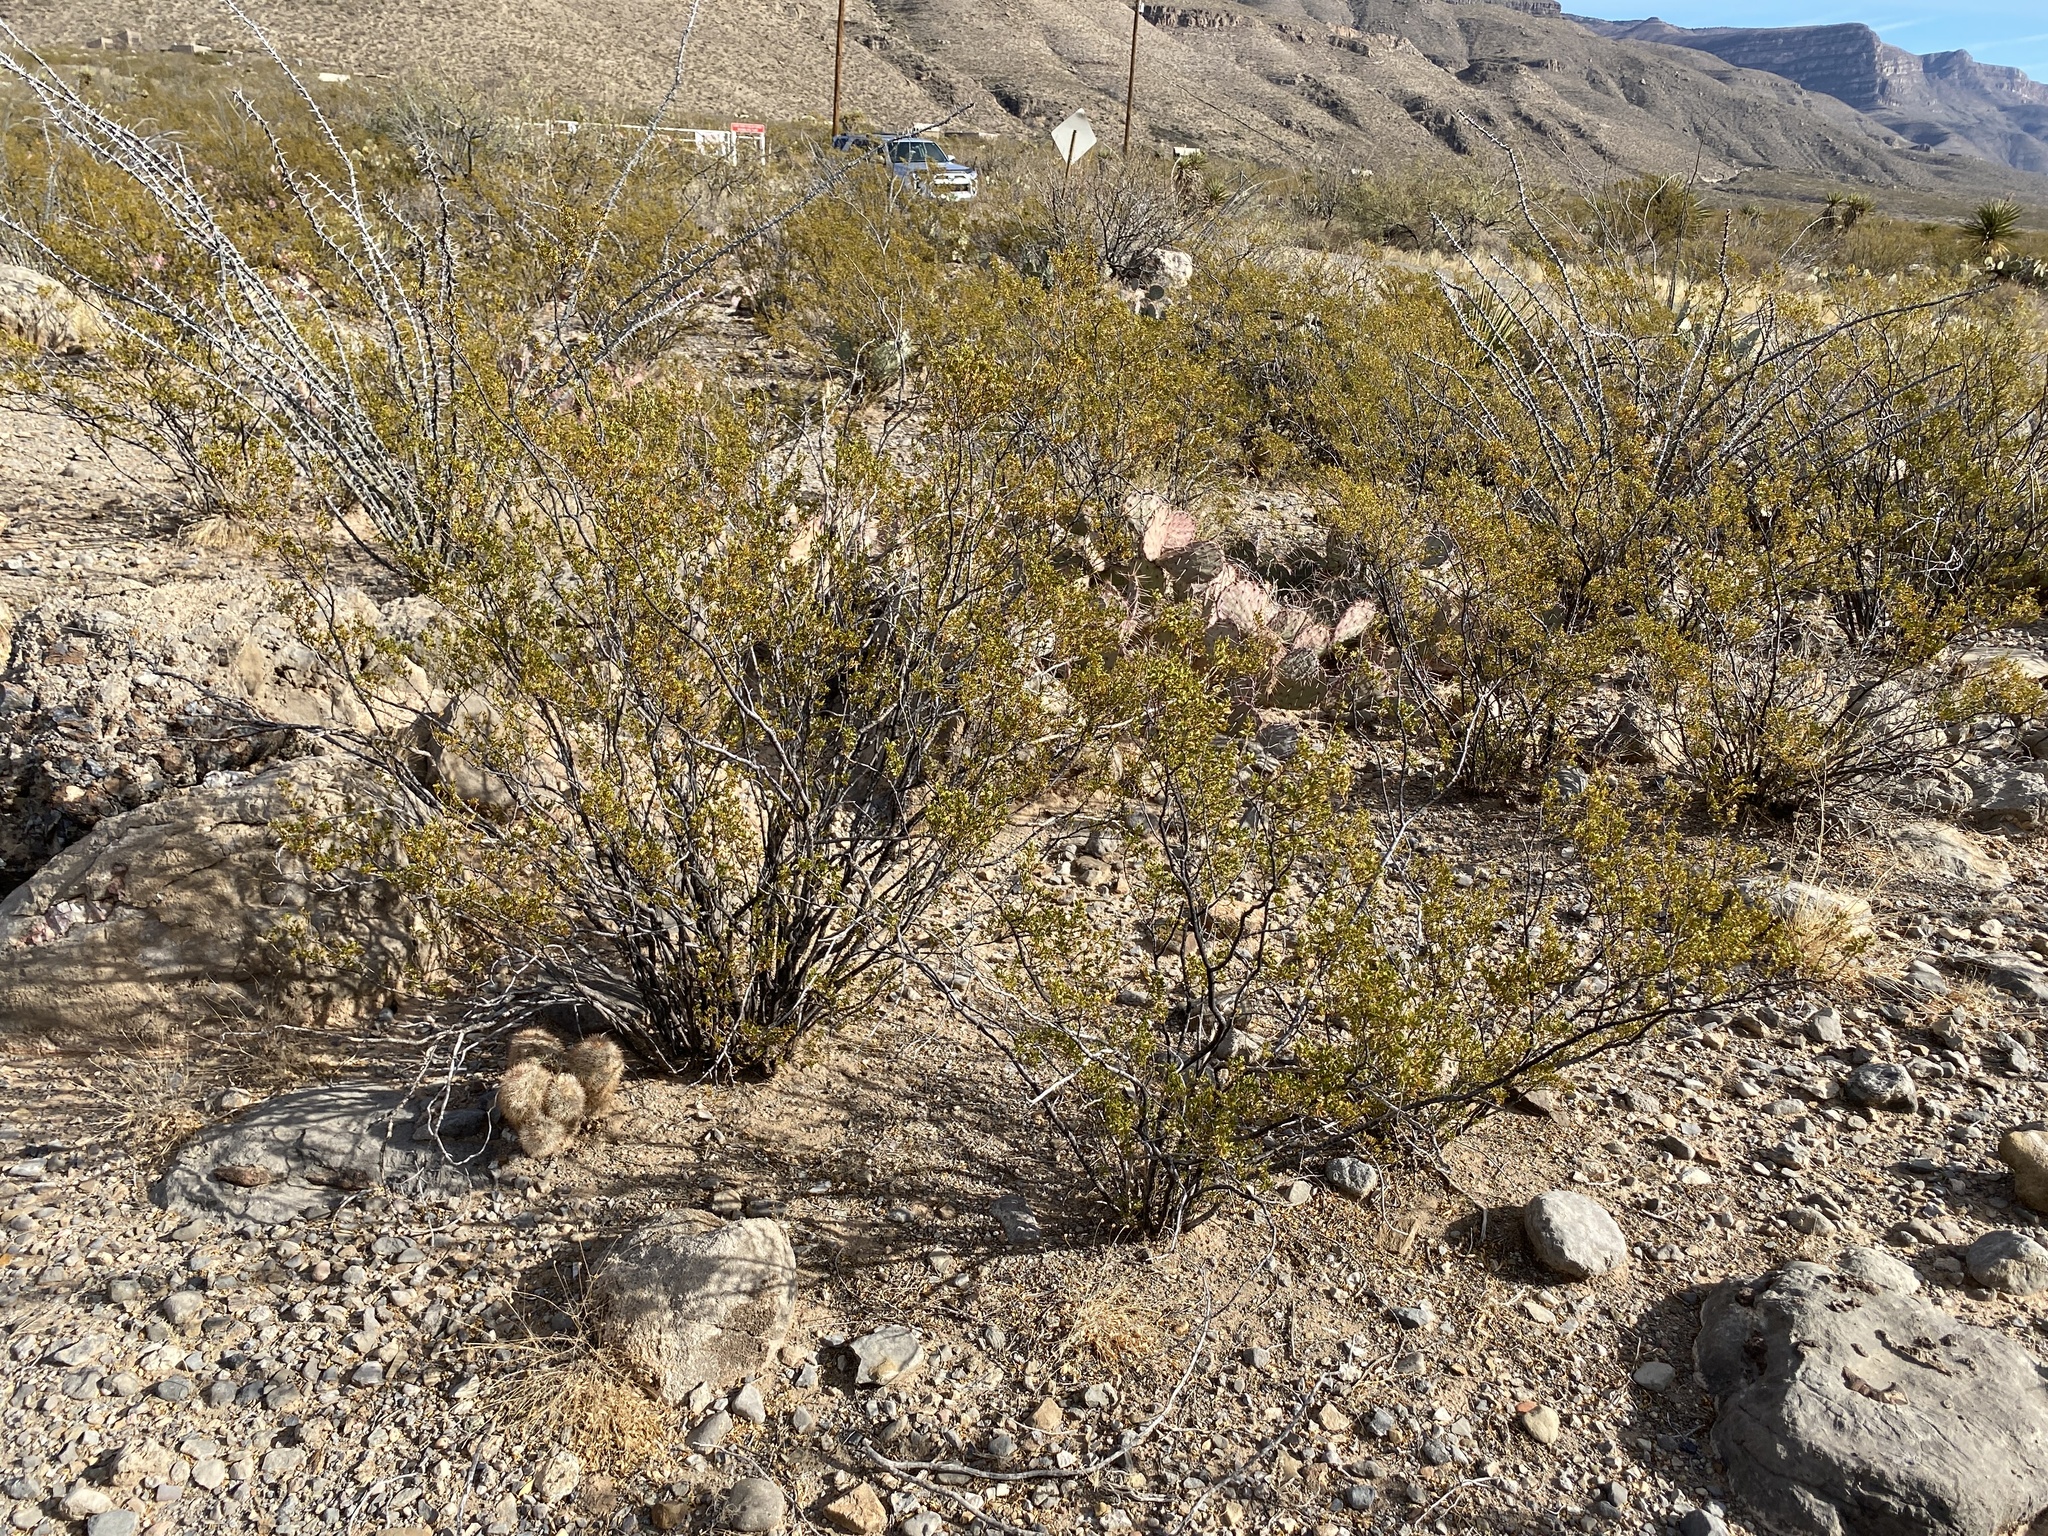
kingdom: Plantae
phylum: Tracheophyta
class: Magnoliopsida
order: Zygophyllales
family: Zygophyllaceae
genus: Larrea
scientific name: Larrea tridentata
